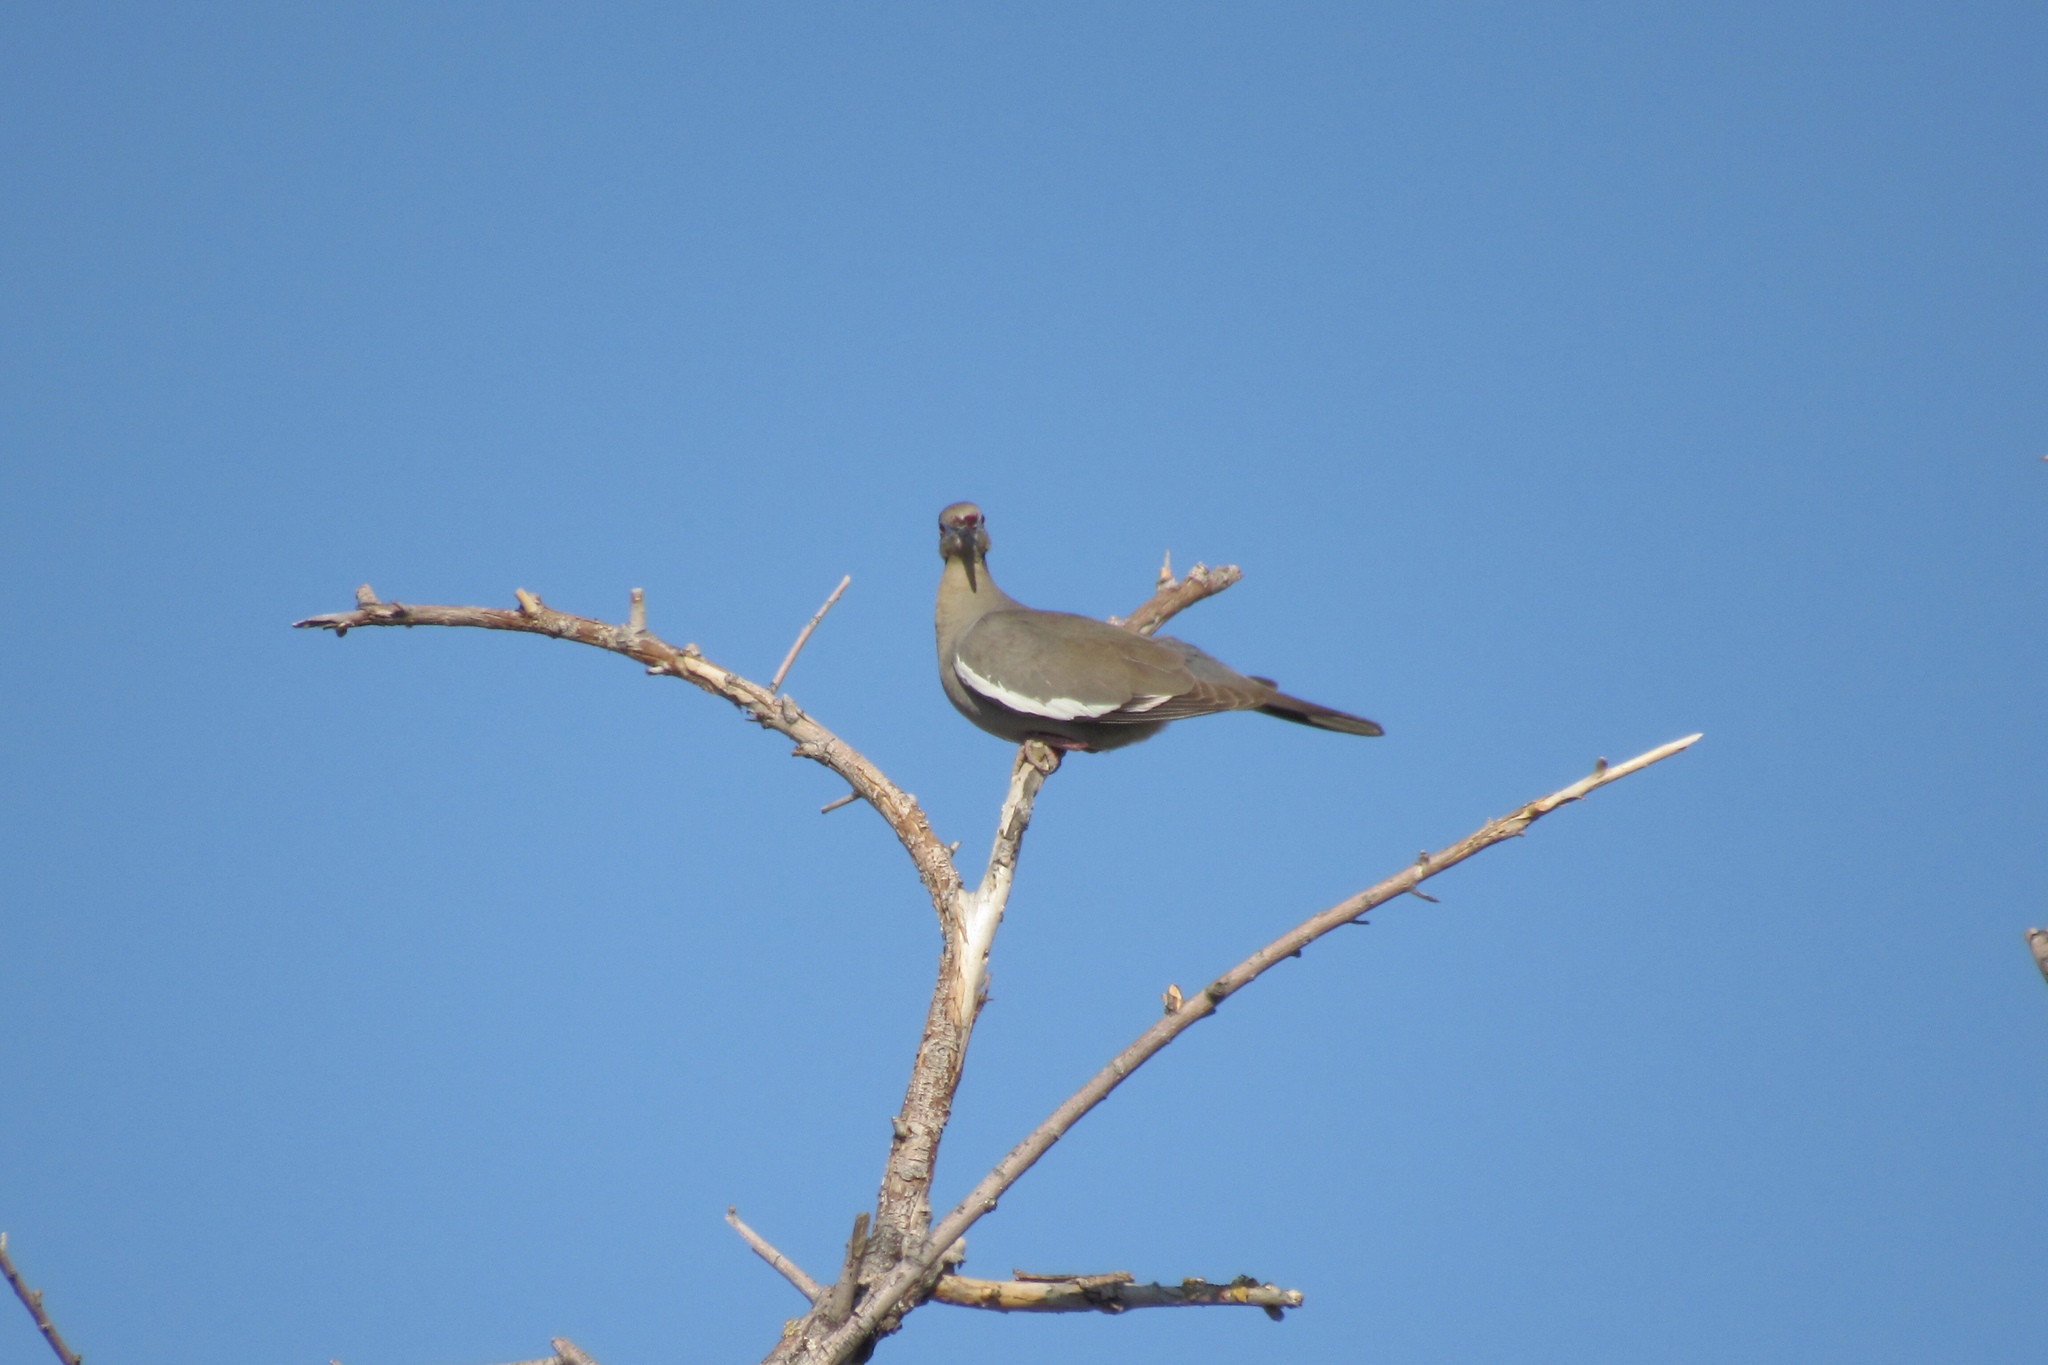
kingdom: Animalia
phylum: Chordata
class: Aves
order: Columbiformes
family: Columbidae
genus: Zenaida
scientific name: Zenaida asiatica
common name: White-winged dove
